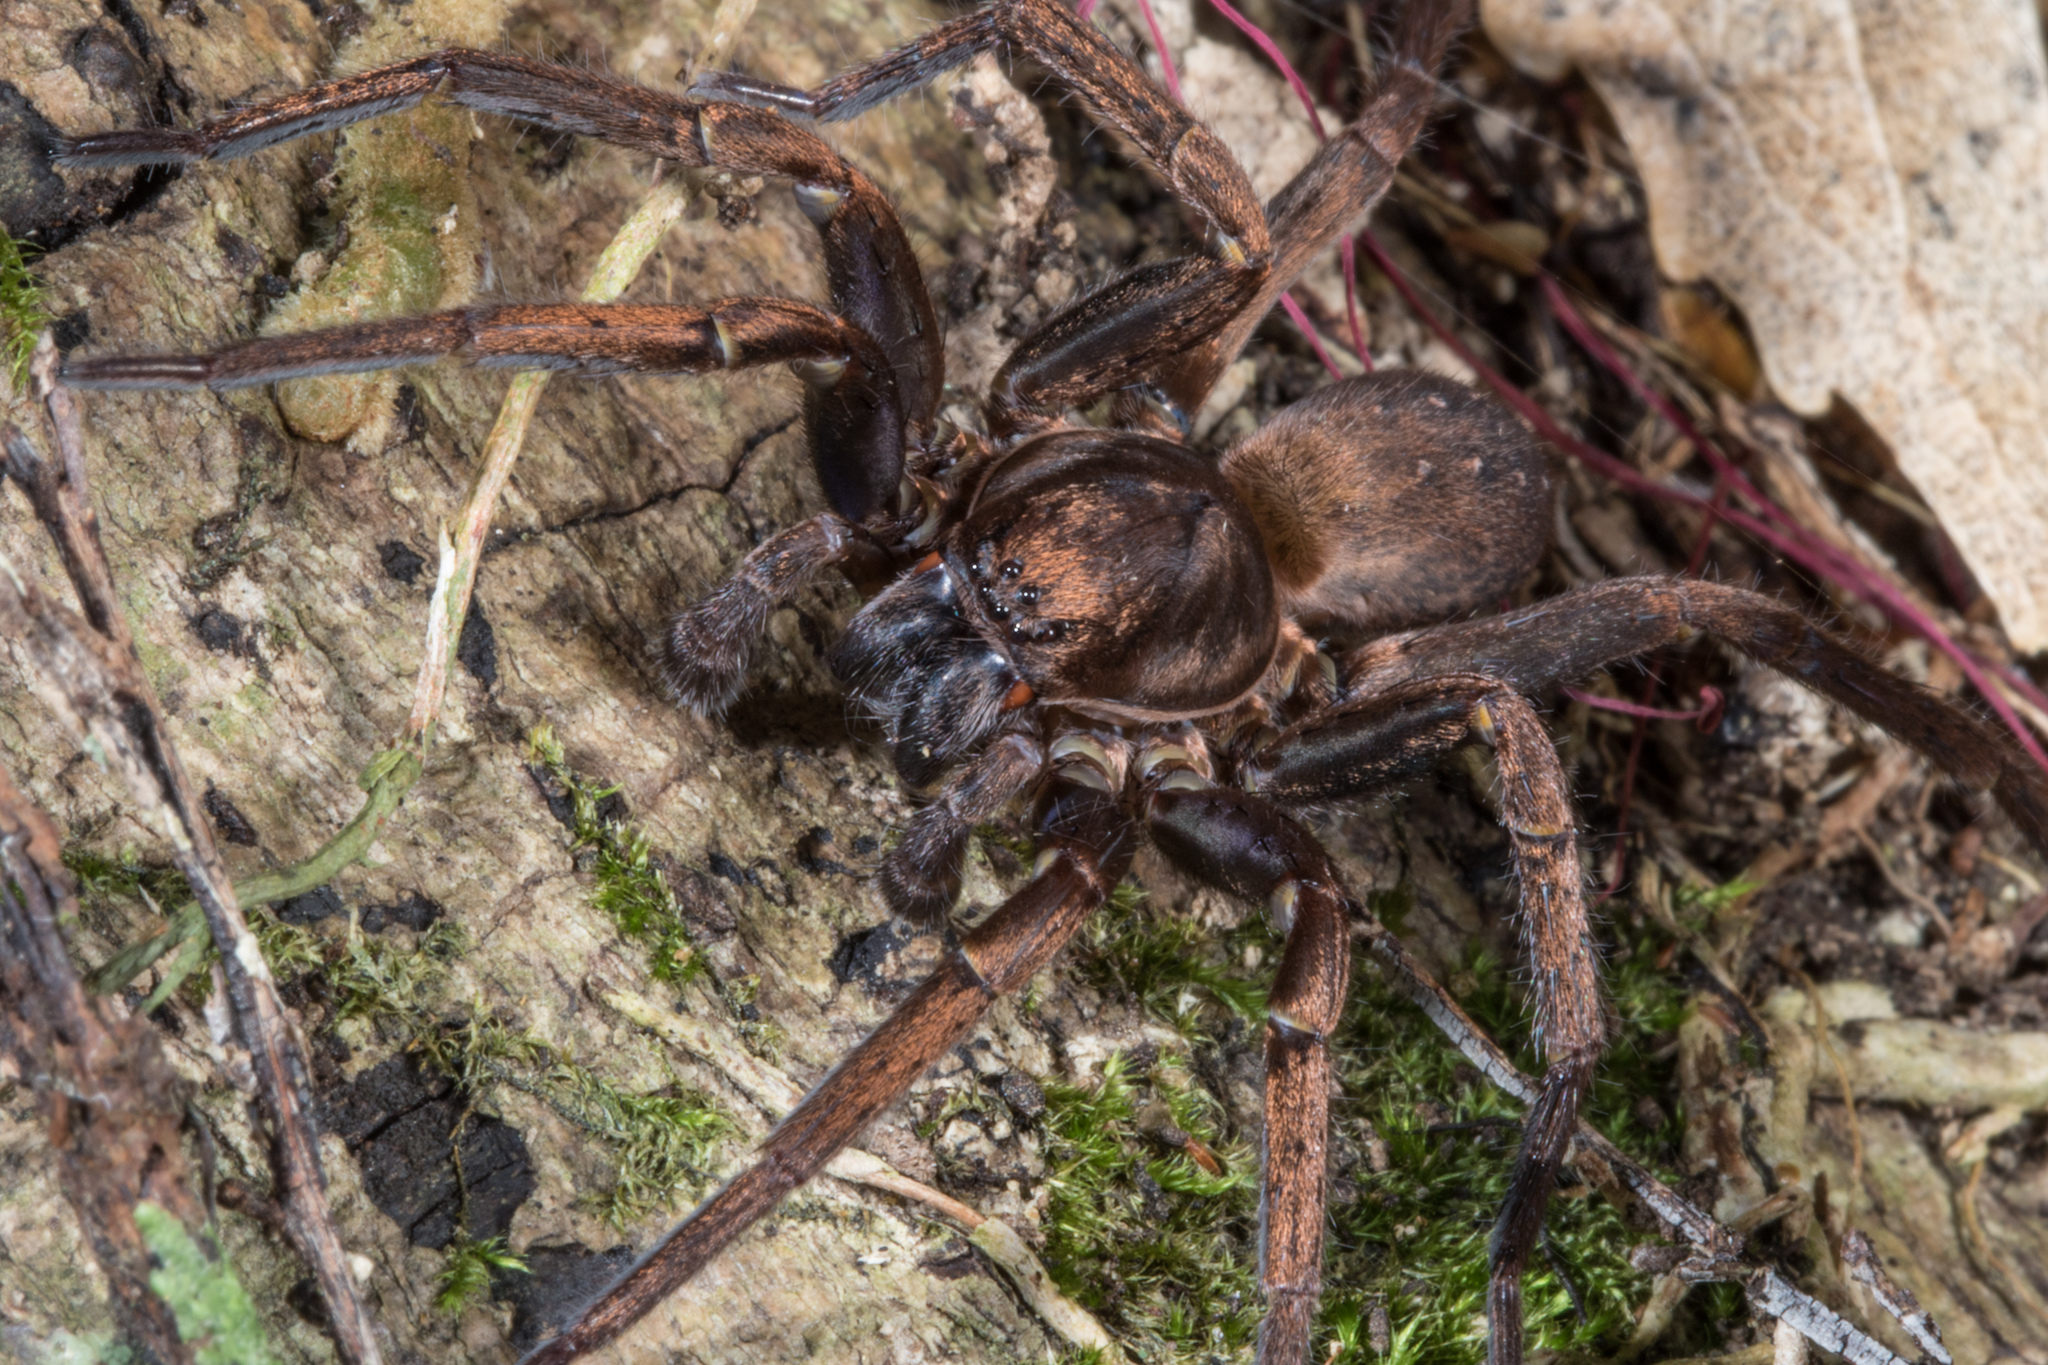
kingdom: Animalia
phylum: Arthropoda
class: Arachnida
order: Araneae
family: Zoropsidae
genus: Uliodon
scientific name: Uliodon albopunctatus
